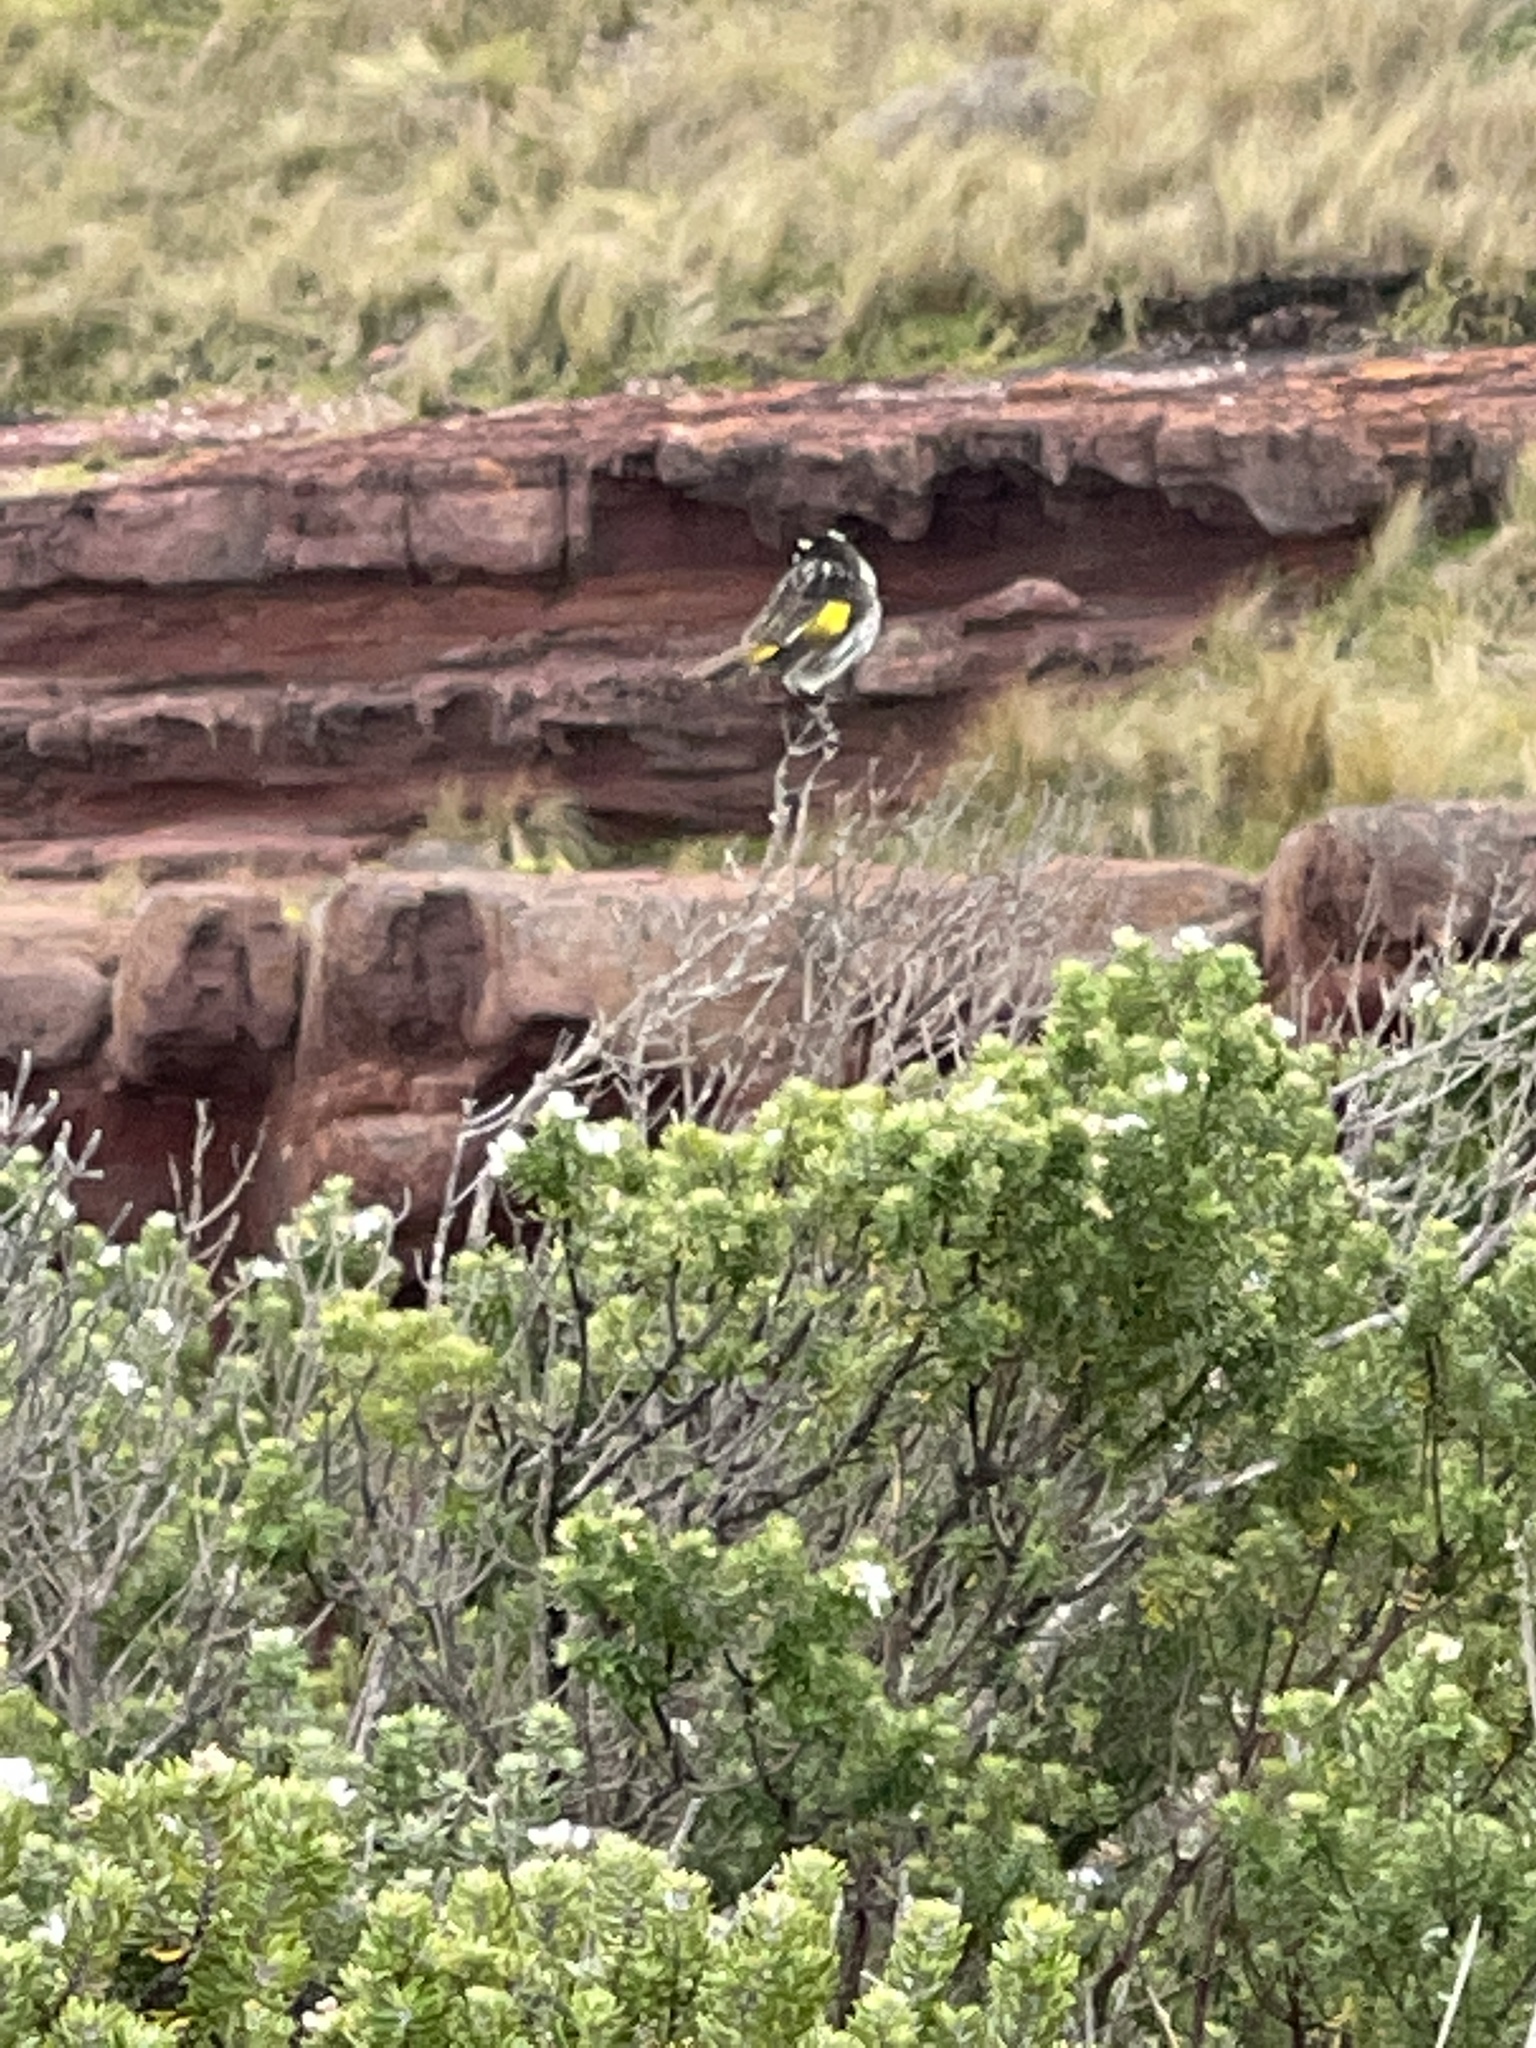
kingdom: Animalia
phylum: Chordata
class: Aves
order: Passeriformes
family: Meliphagidae
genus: Phylidonyris
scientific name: Phylidonyris novaehollandiae
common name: New holland honeyeater
